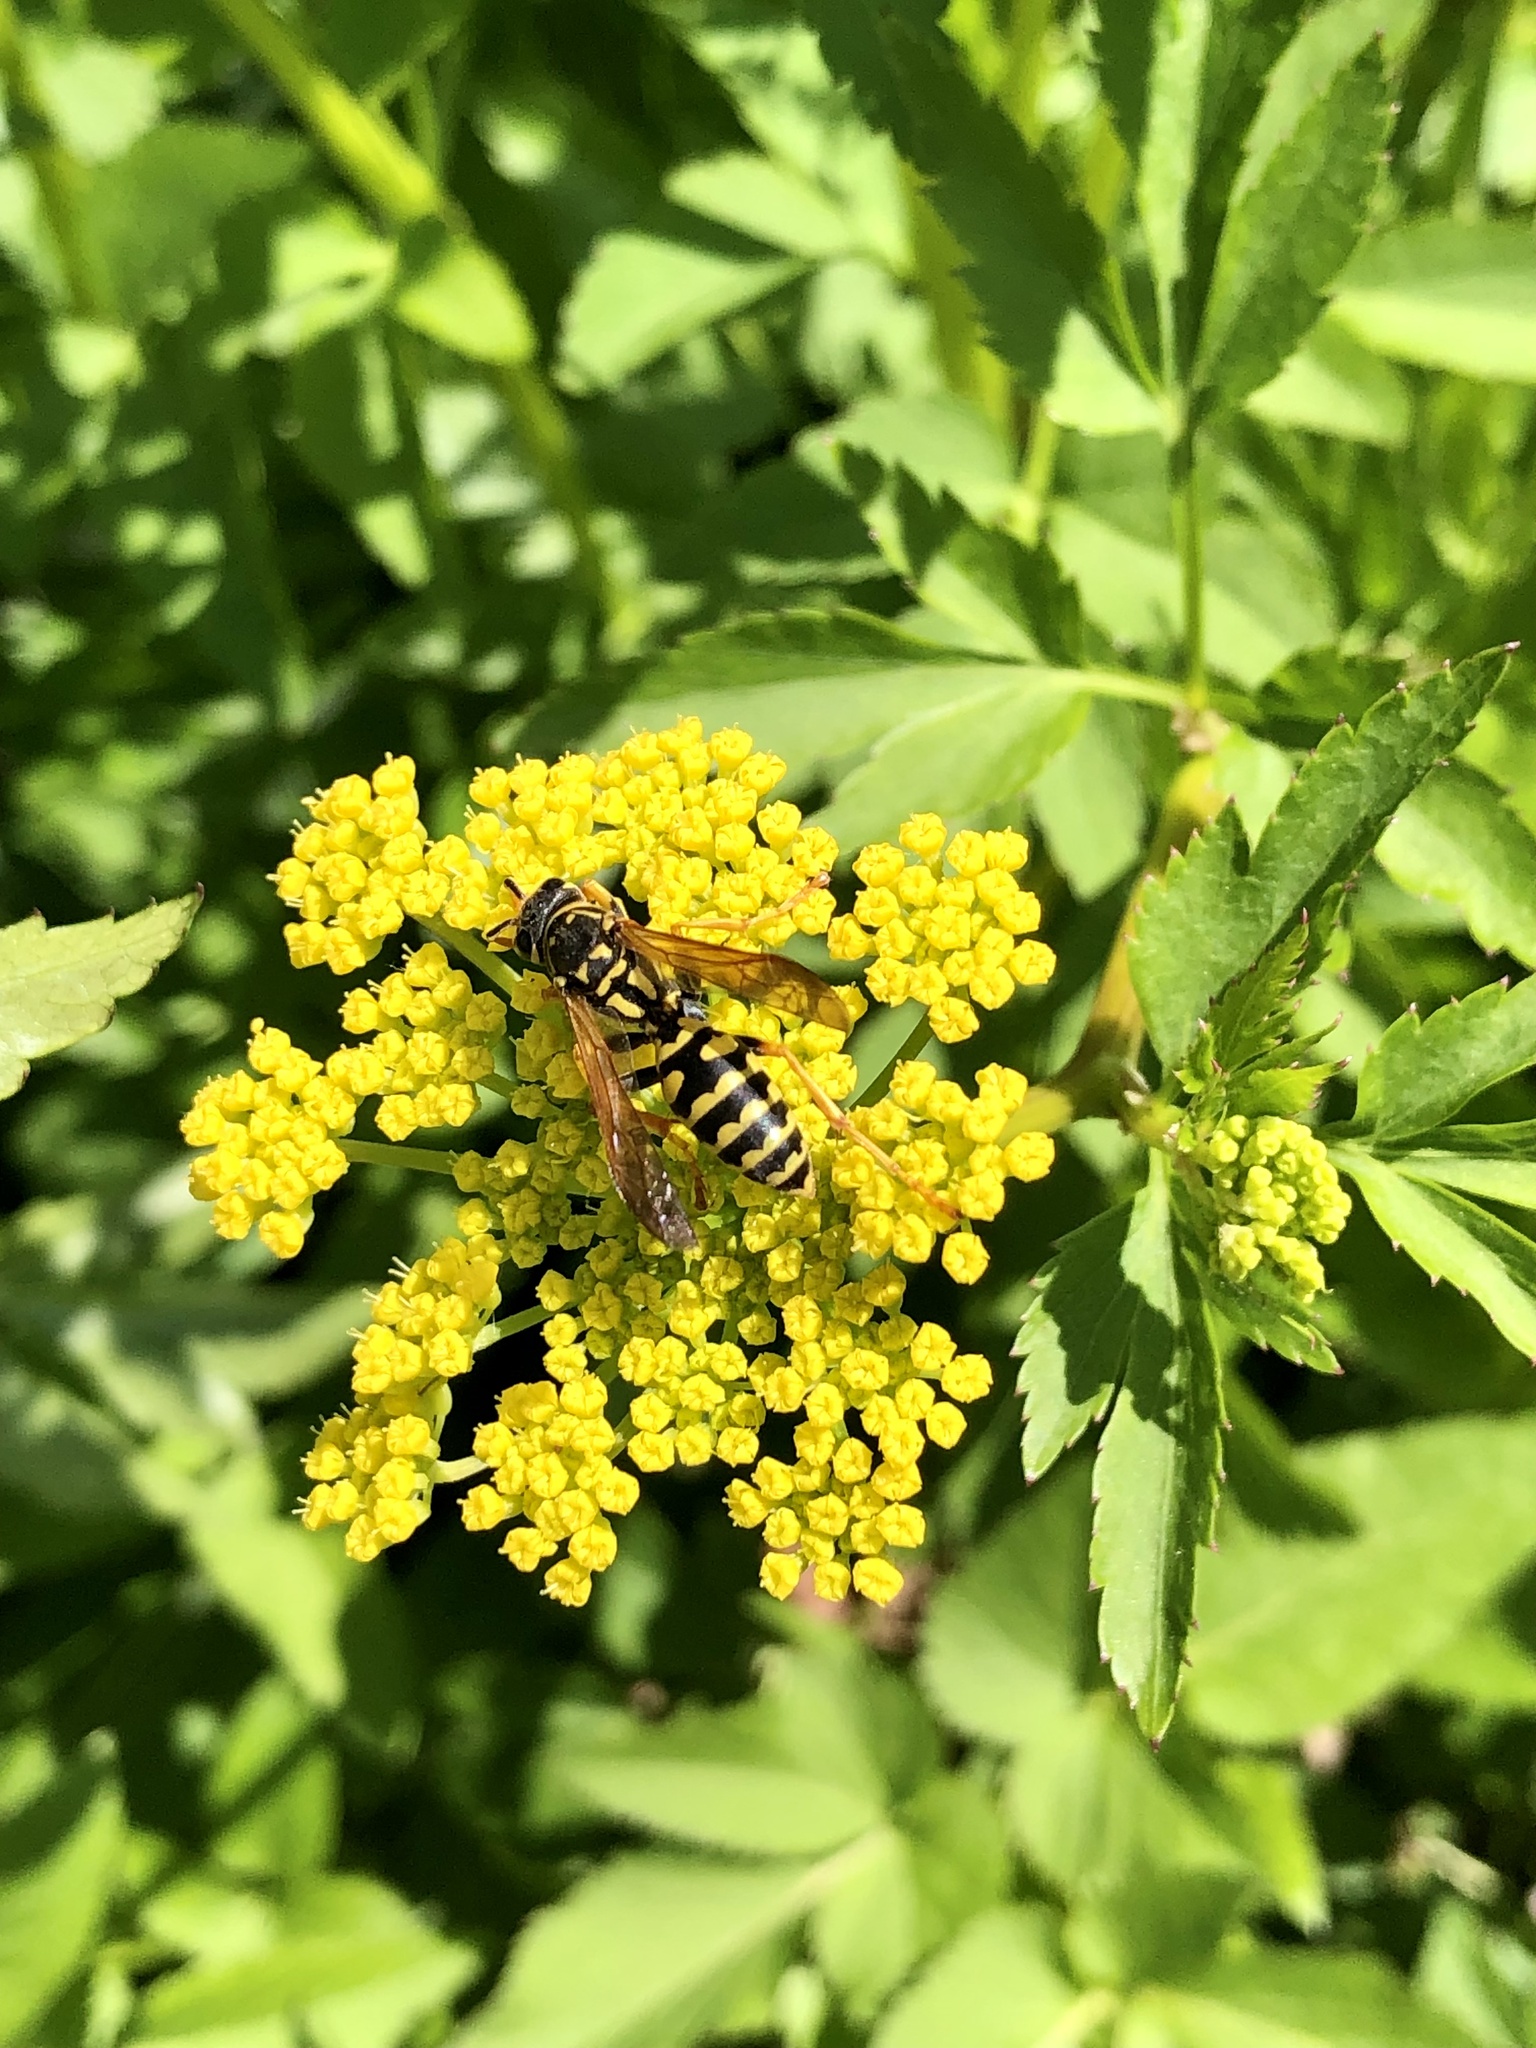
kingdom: Animalia
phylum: Arthropoda
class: Insecta
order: Hymenoptera
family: Eumenidae
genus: Polistes
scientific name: Polistes dominula
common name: Paper wasp
